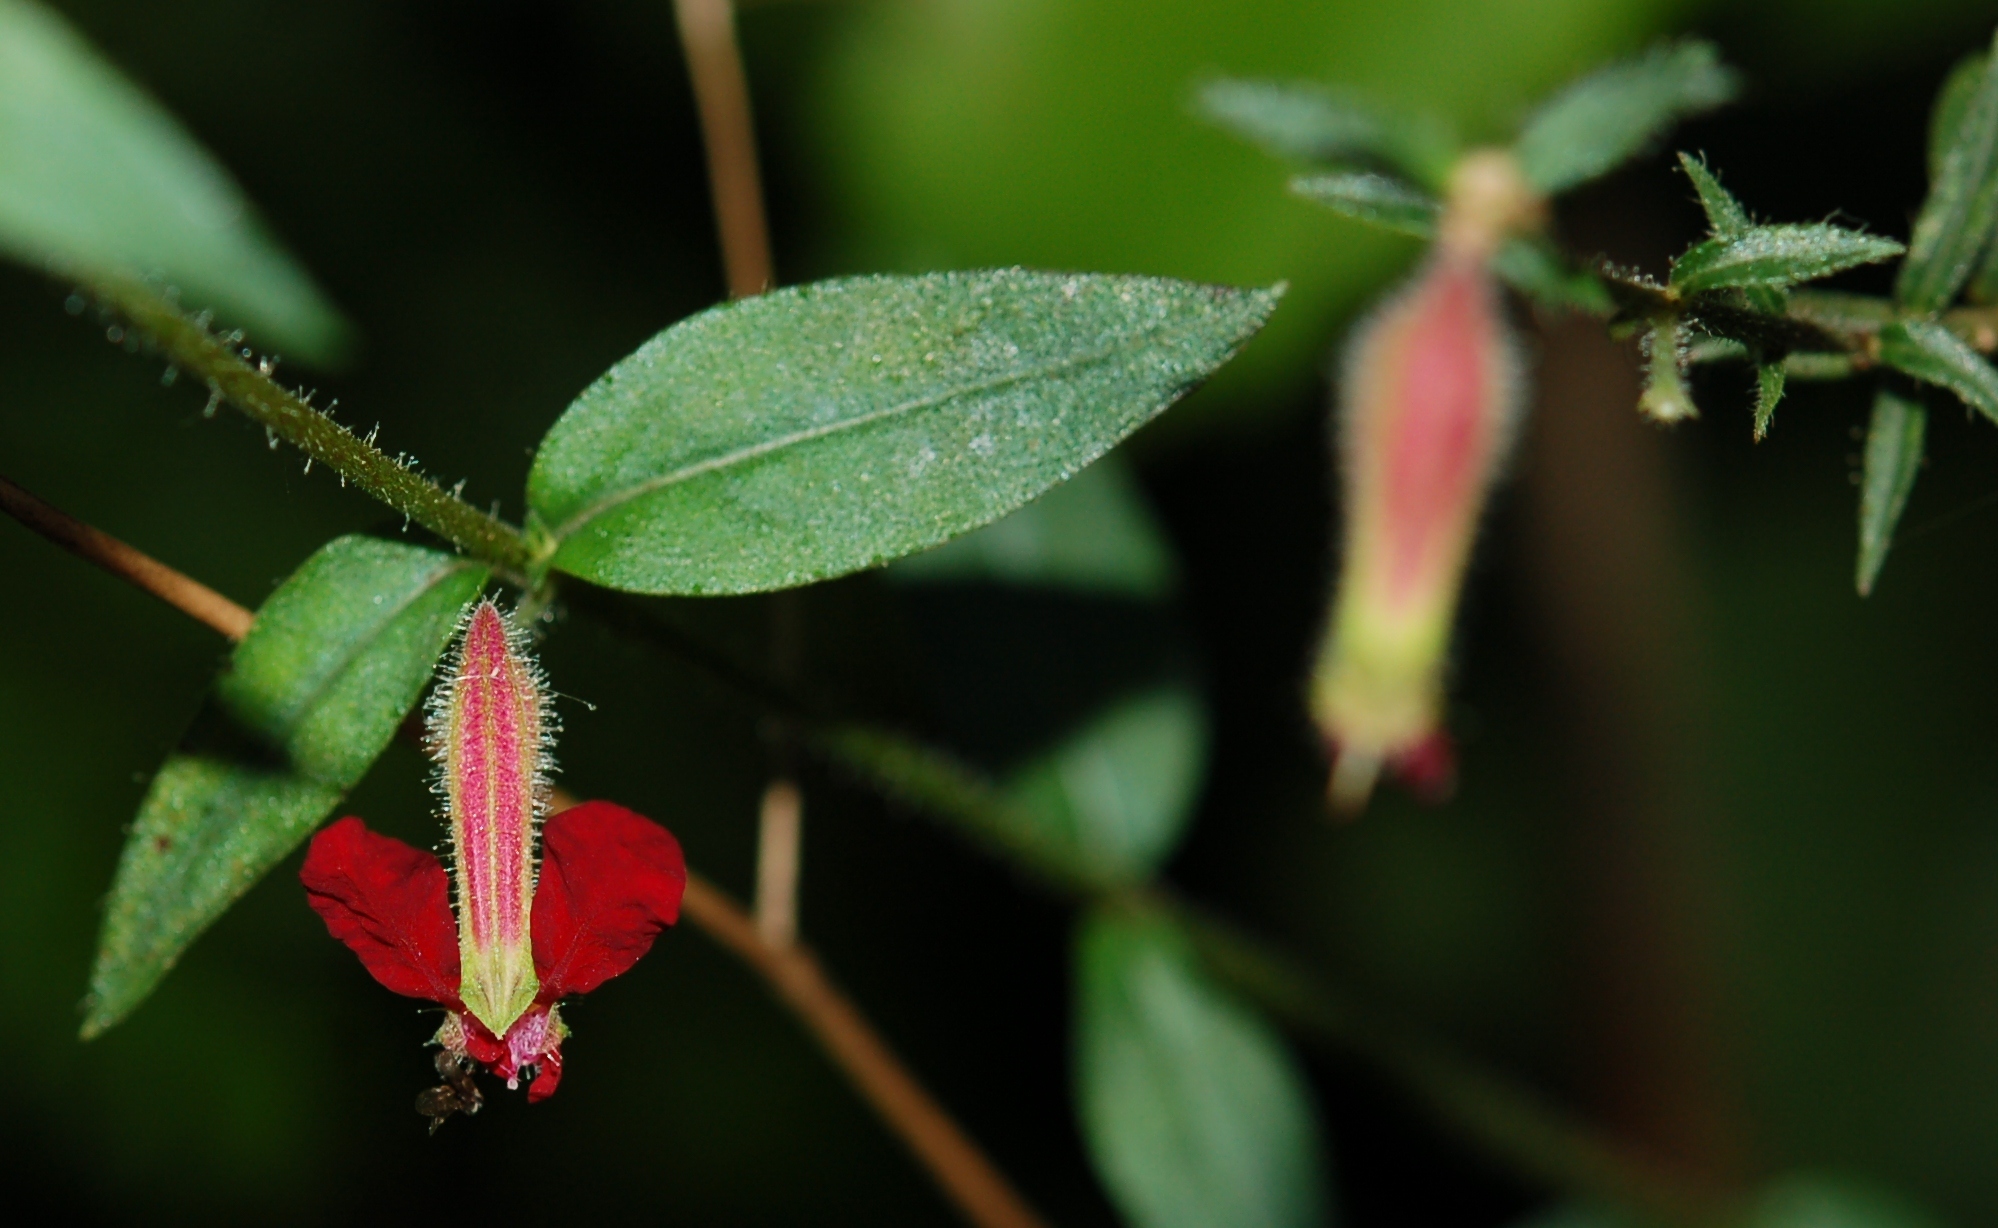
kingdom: Plantae
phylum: Tracheophyta
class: Magnoliopsida
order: Myrtales
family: Lythraceae
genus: Cuphea
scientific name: Cuphea hookeriana
